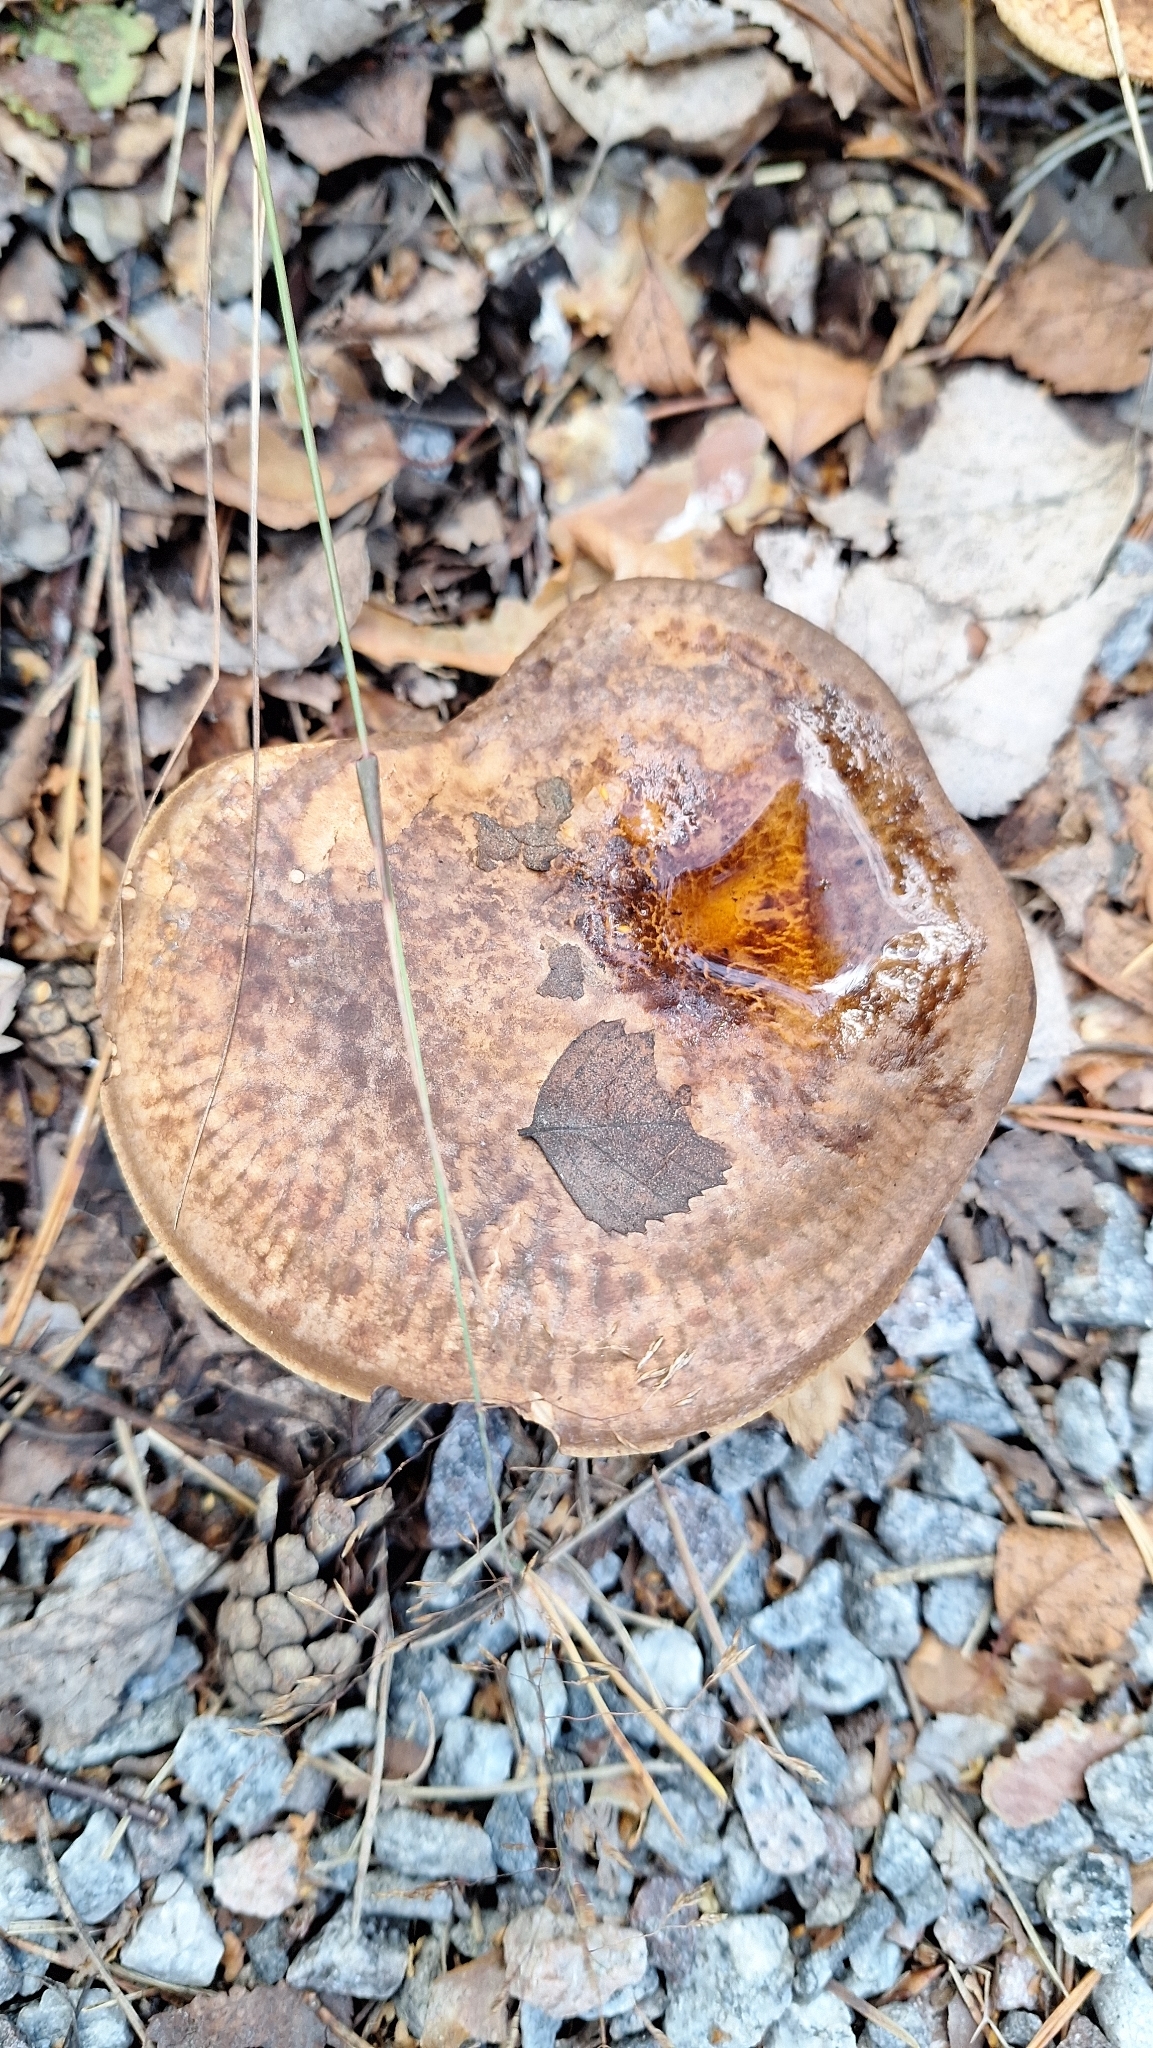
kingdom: Fungi
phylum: Basidiomycota
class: Agaricomycetes
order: Boletales
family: Paxillaceae
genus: Paxillus
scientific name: Paxillus involutus
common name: Brown roll rim
